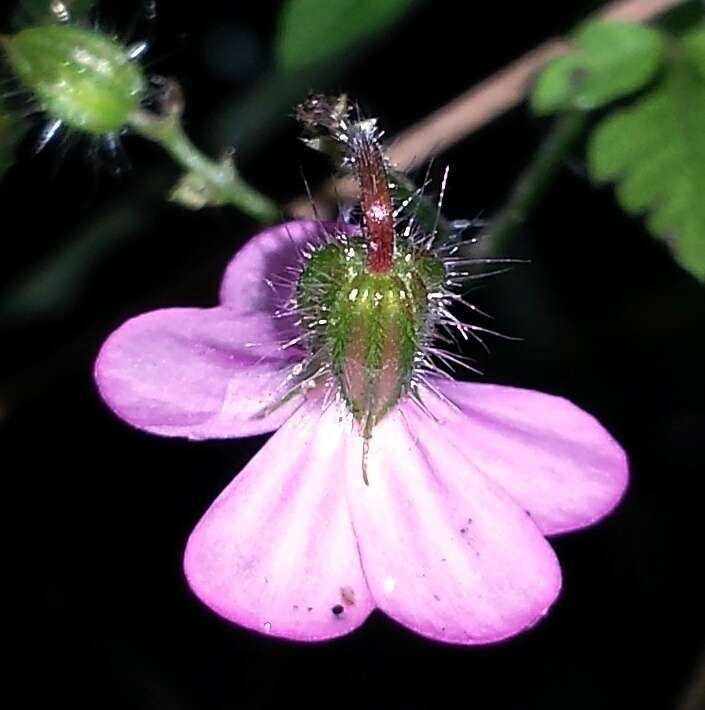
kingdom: Plantae
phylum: Tracheophyta
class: Magnoliopsida
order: Geraniales
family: Geraniaceae
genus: Geranium
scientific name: Geranium robertianum
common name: Herb-robert
